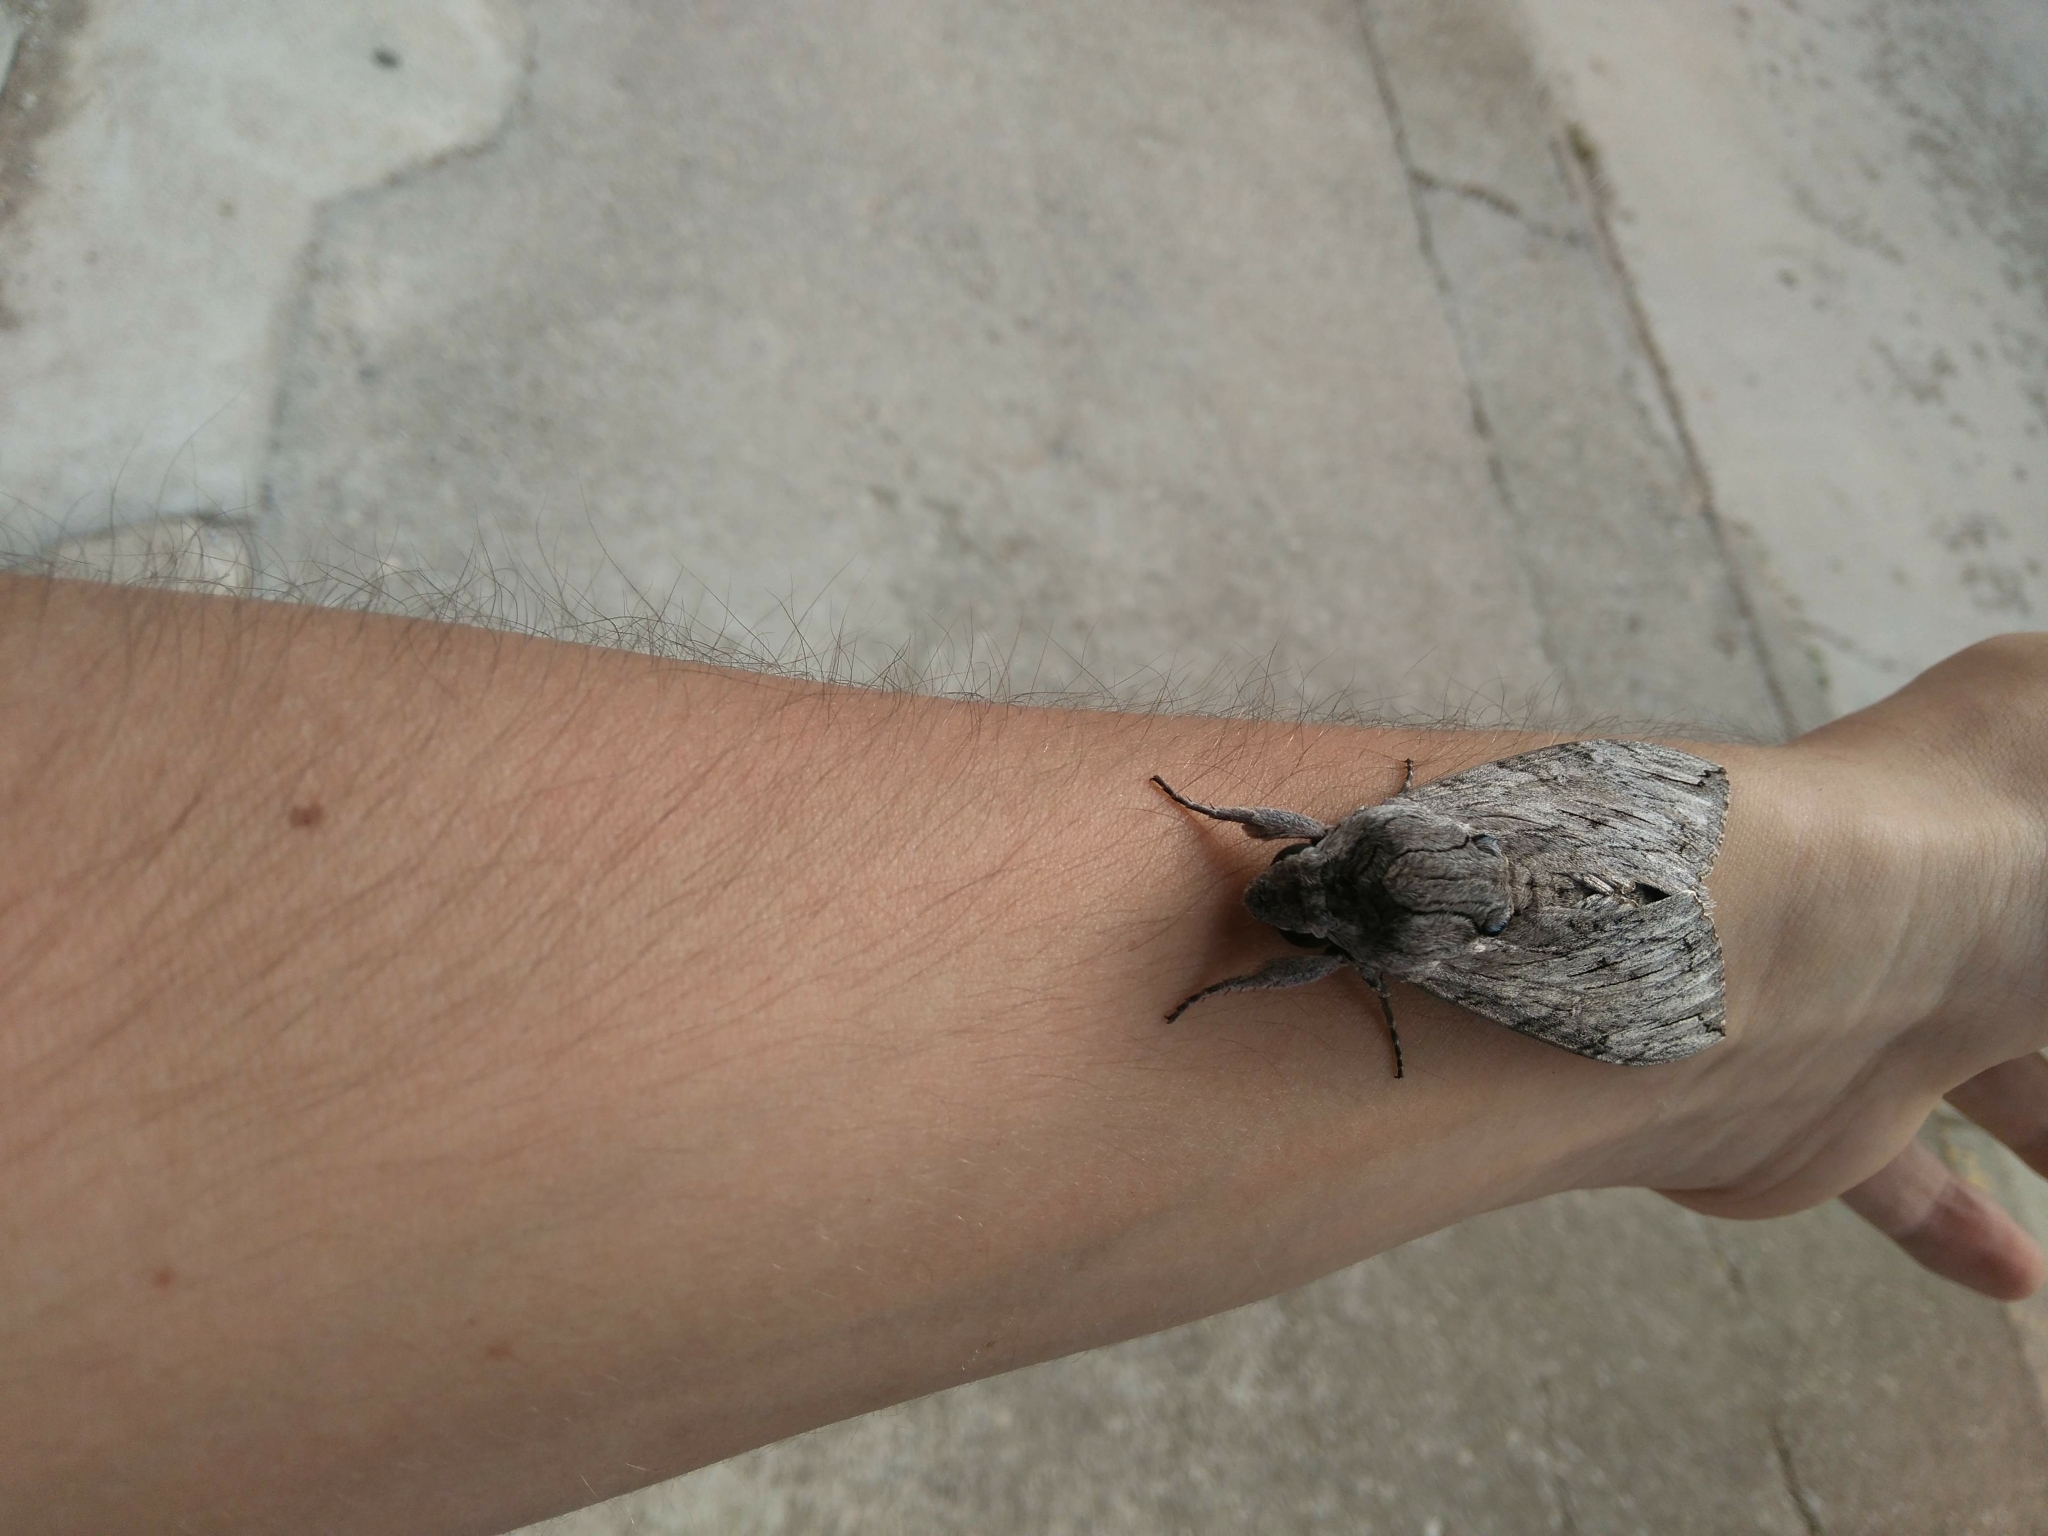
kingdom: Animalia
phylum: Arthropoda
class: Insecta
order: Lepidoptera
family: Sphingidae
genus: Agrius
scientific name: Agrius convolvuli
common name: Convolvulus hawkmoth
